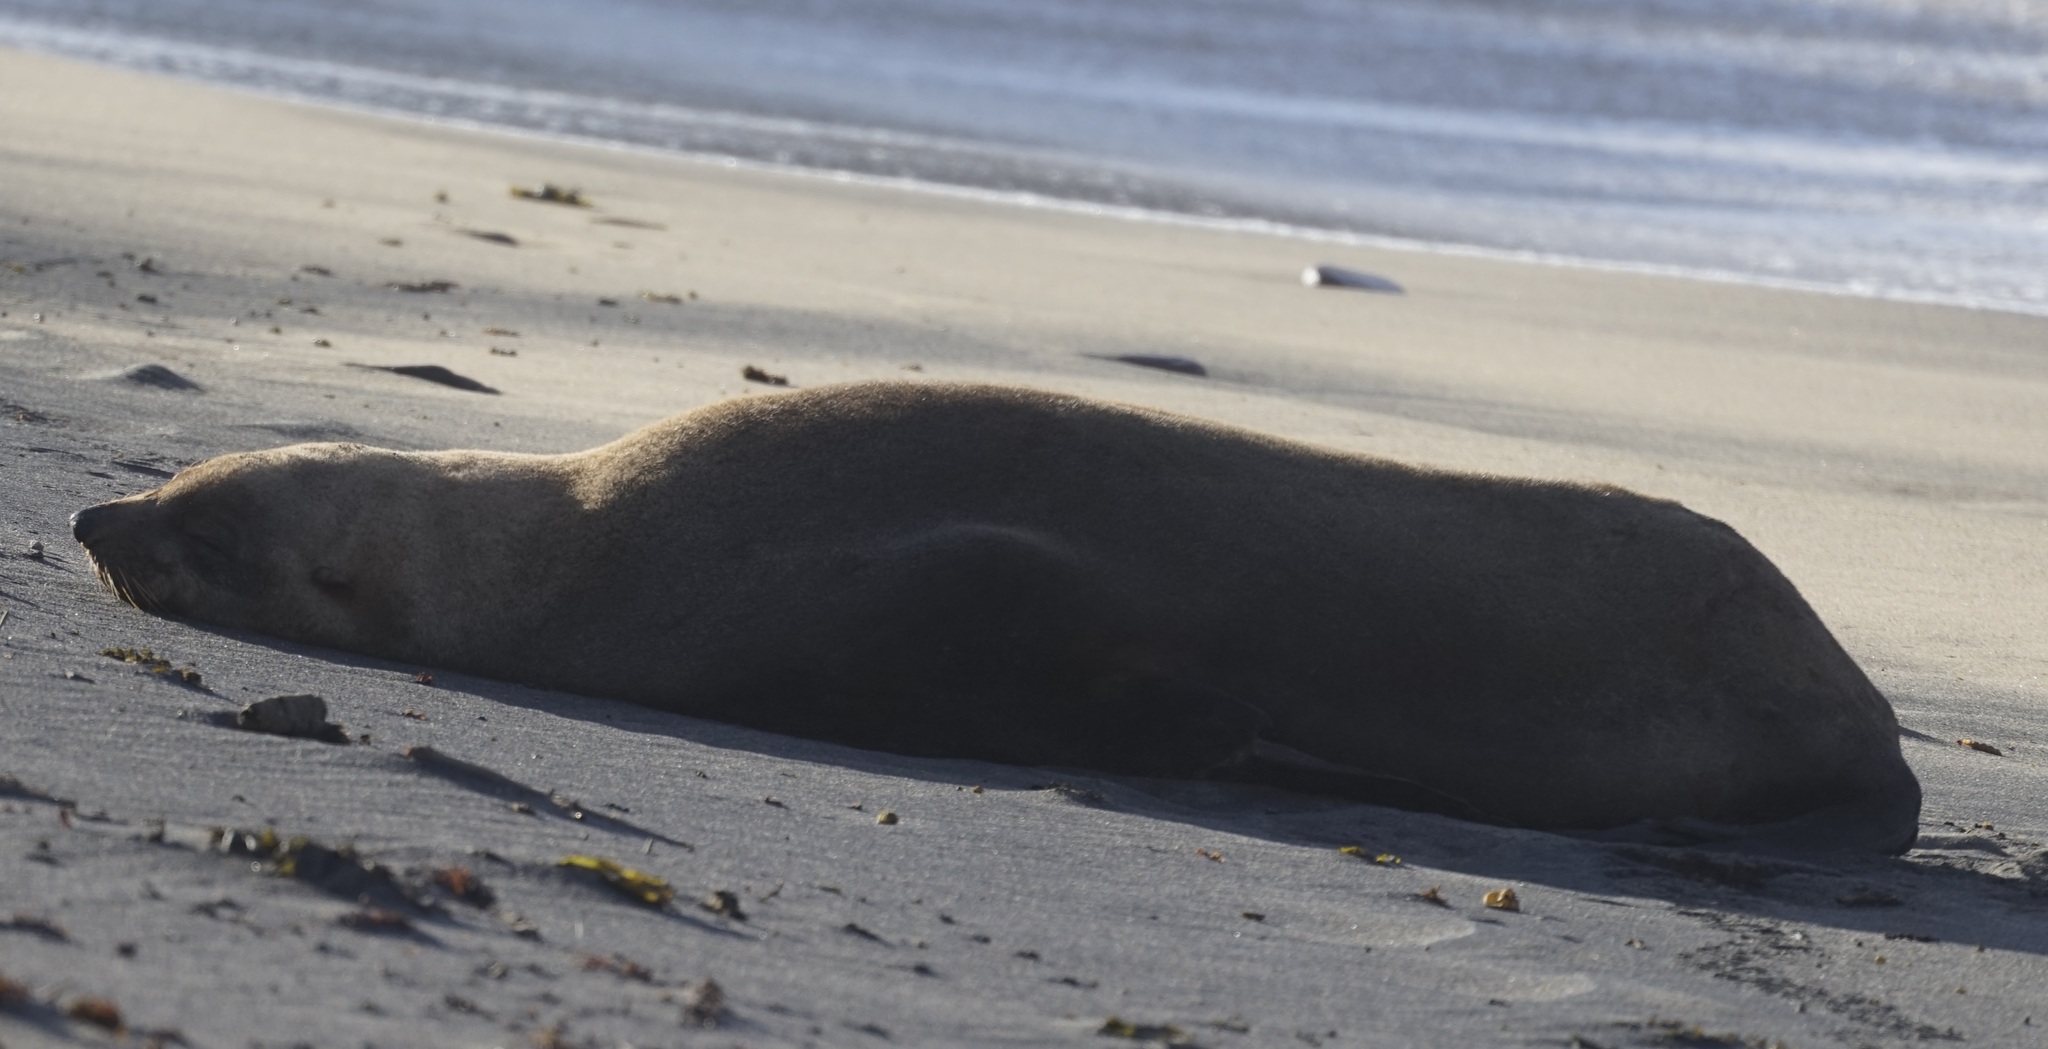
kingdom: Animalia
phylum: Chordata
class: Mammalia
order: Carnivora
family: Otariidae
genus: Arctocephalus
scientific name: Arctocephalus pusillus
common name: Brown fur seal
